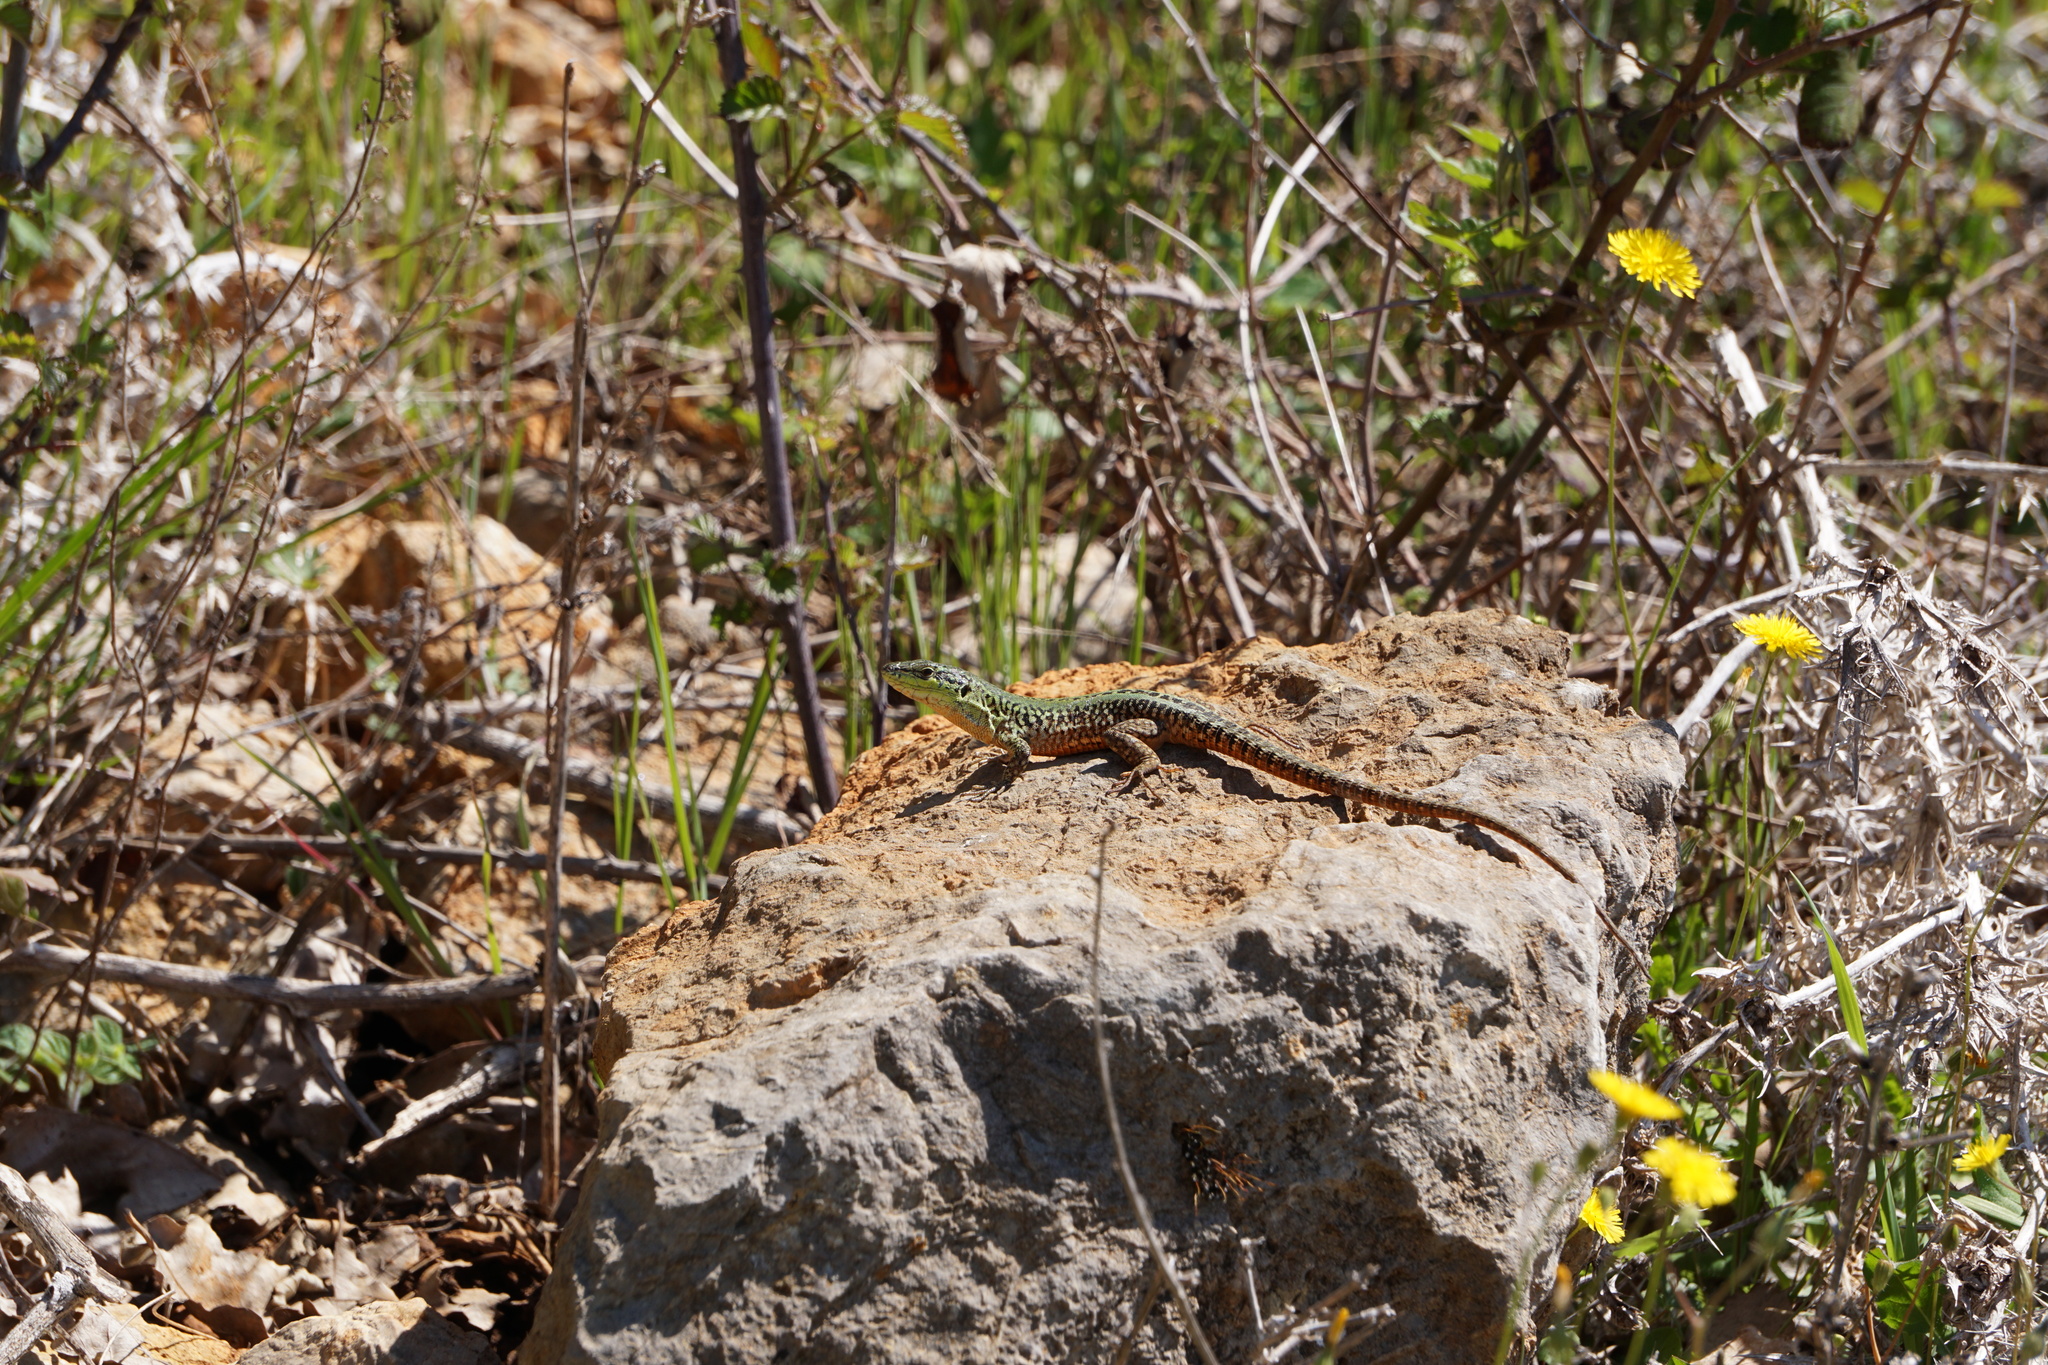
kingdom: Animalia
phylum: Chordata
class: Squamata
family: Lacertidae
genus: Podarcis
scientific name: Podarcis siculus
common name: Italian wall lizard
